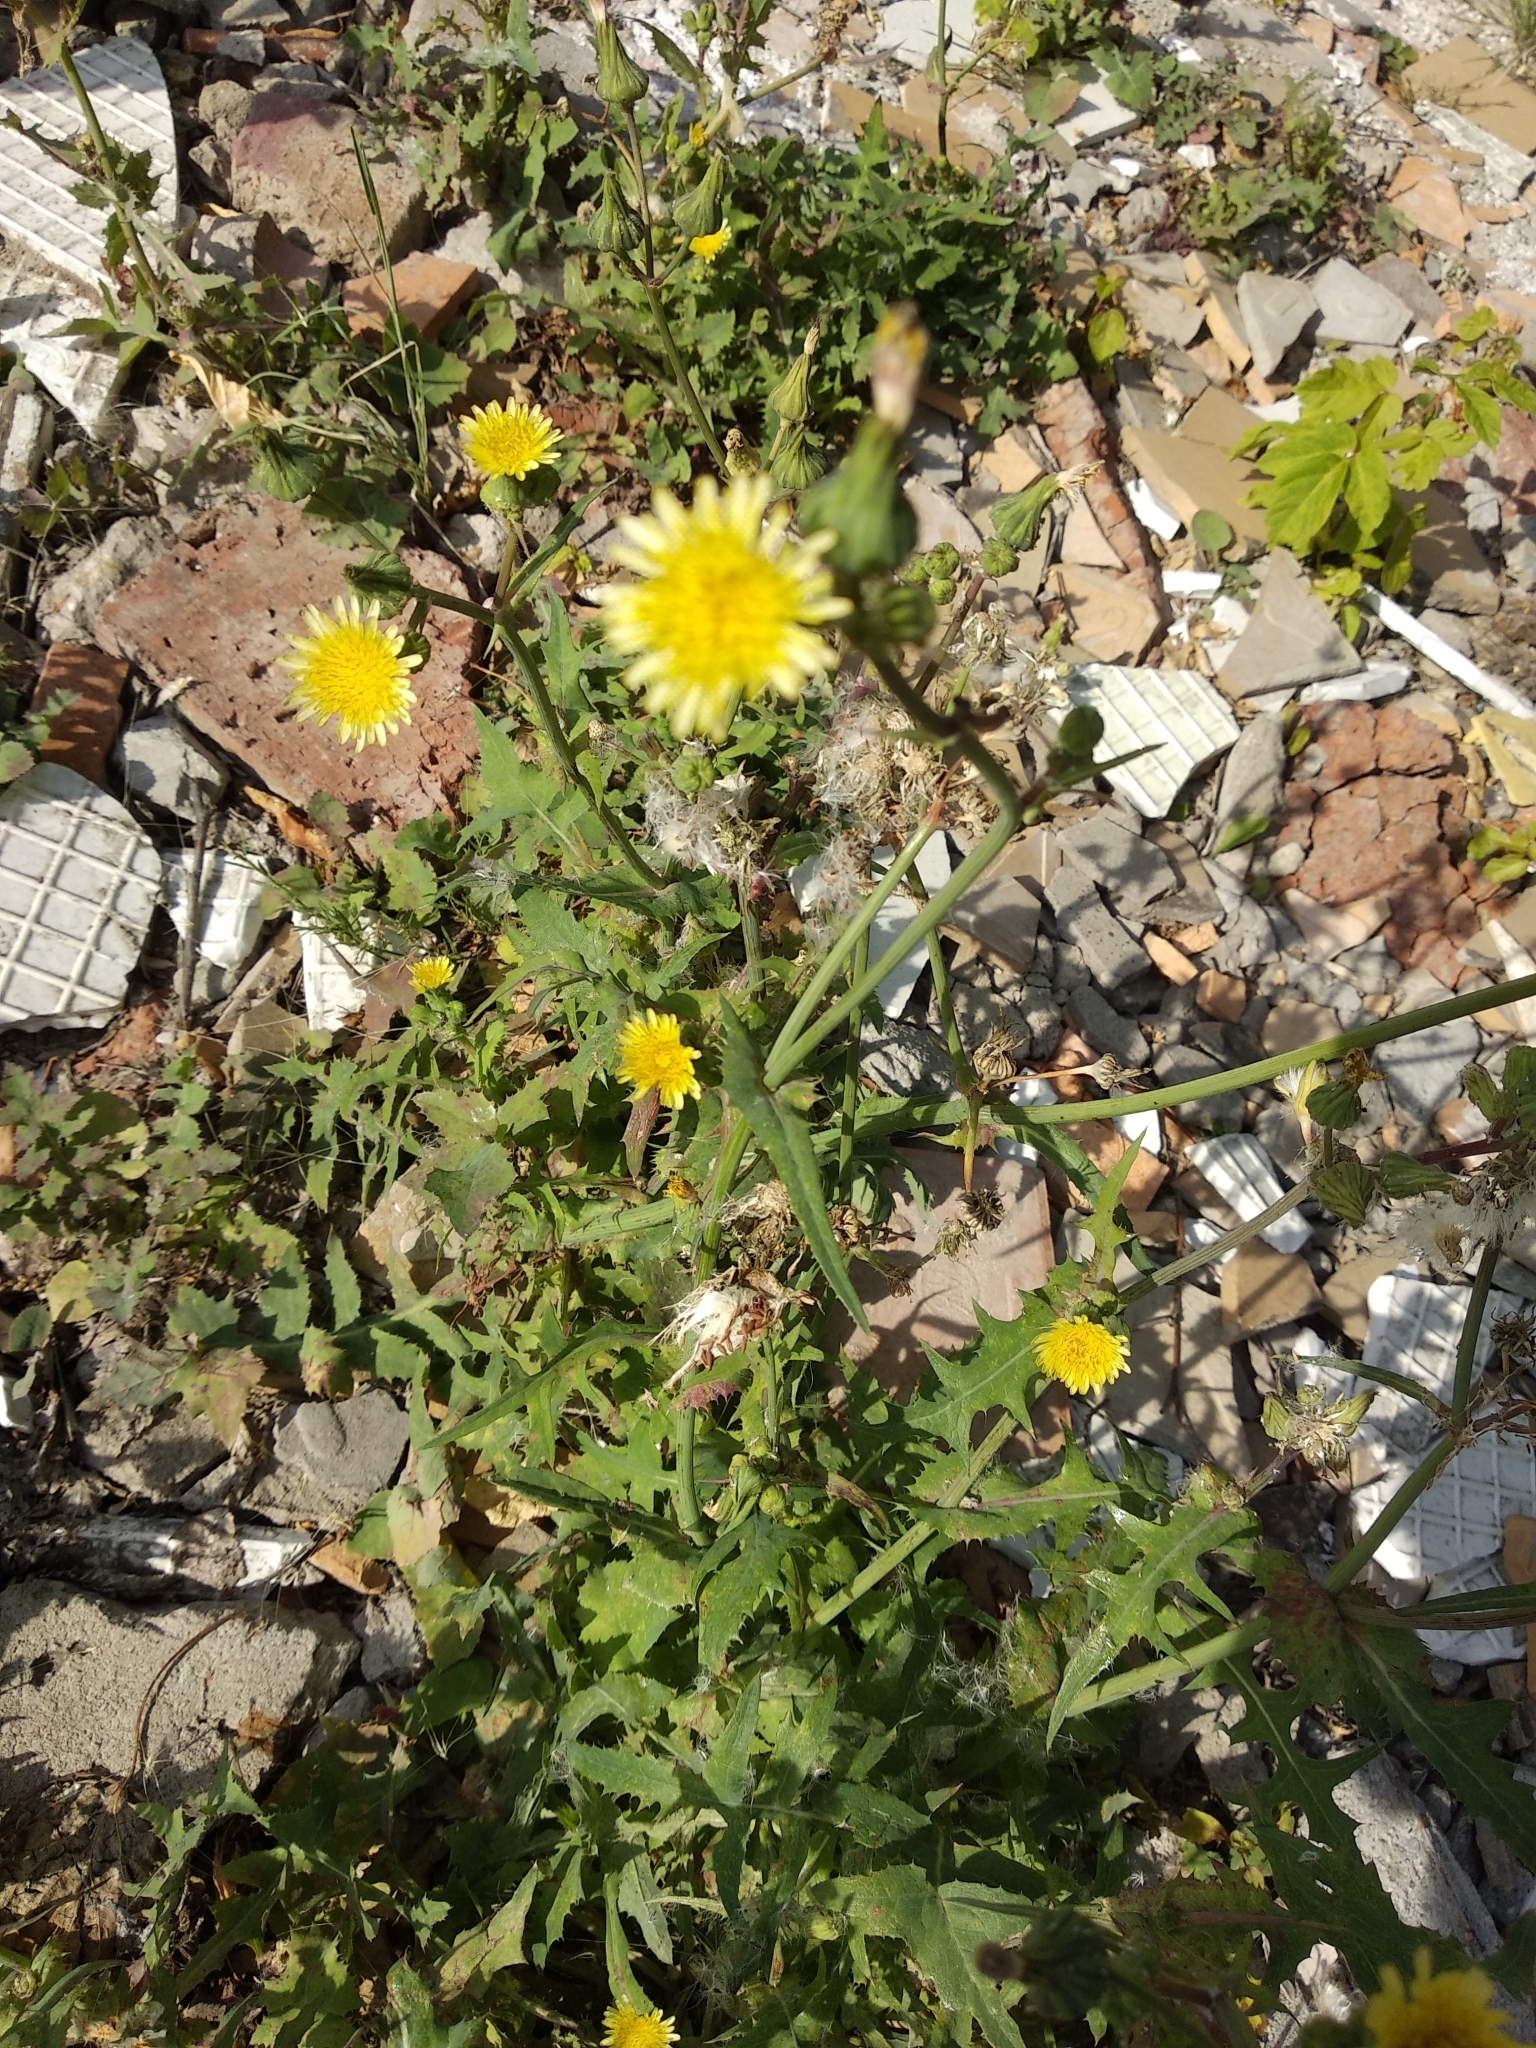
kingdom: Plantae
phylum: Tracheophyta
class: Magnoliopsida
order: Asterales
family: Asteraceae
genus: Sonchus
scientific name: Sonchus oleraceus
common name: Common sowthistle
